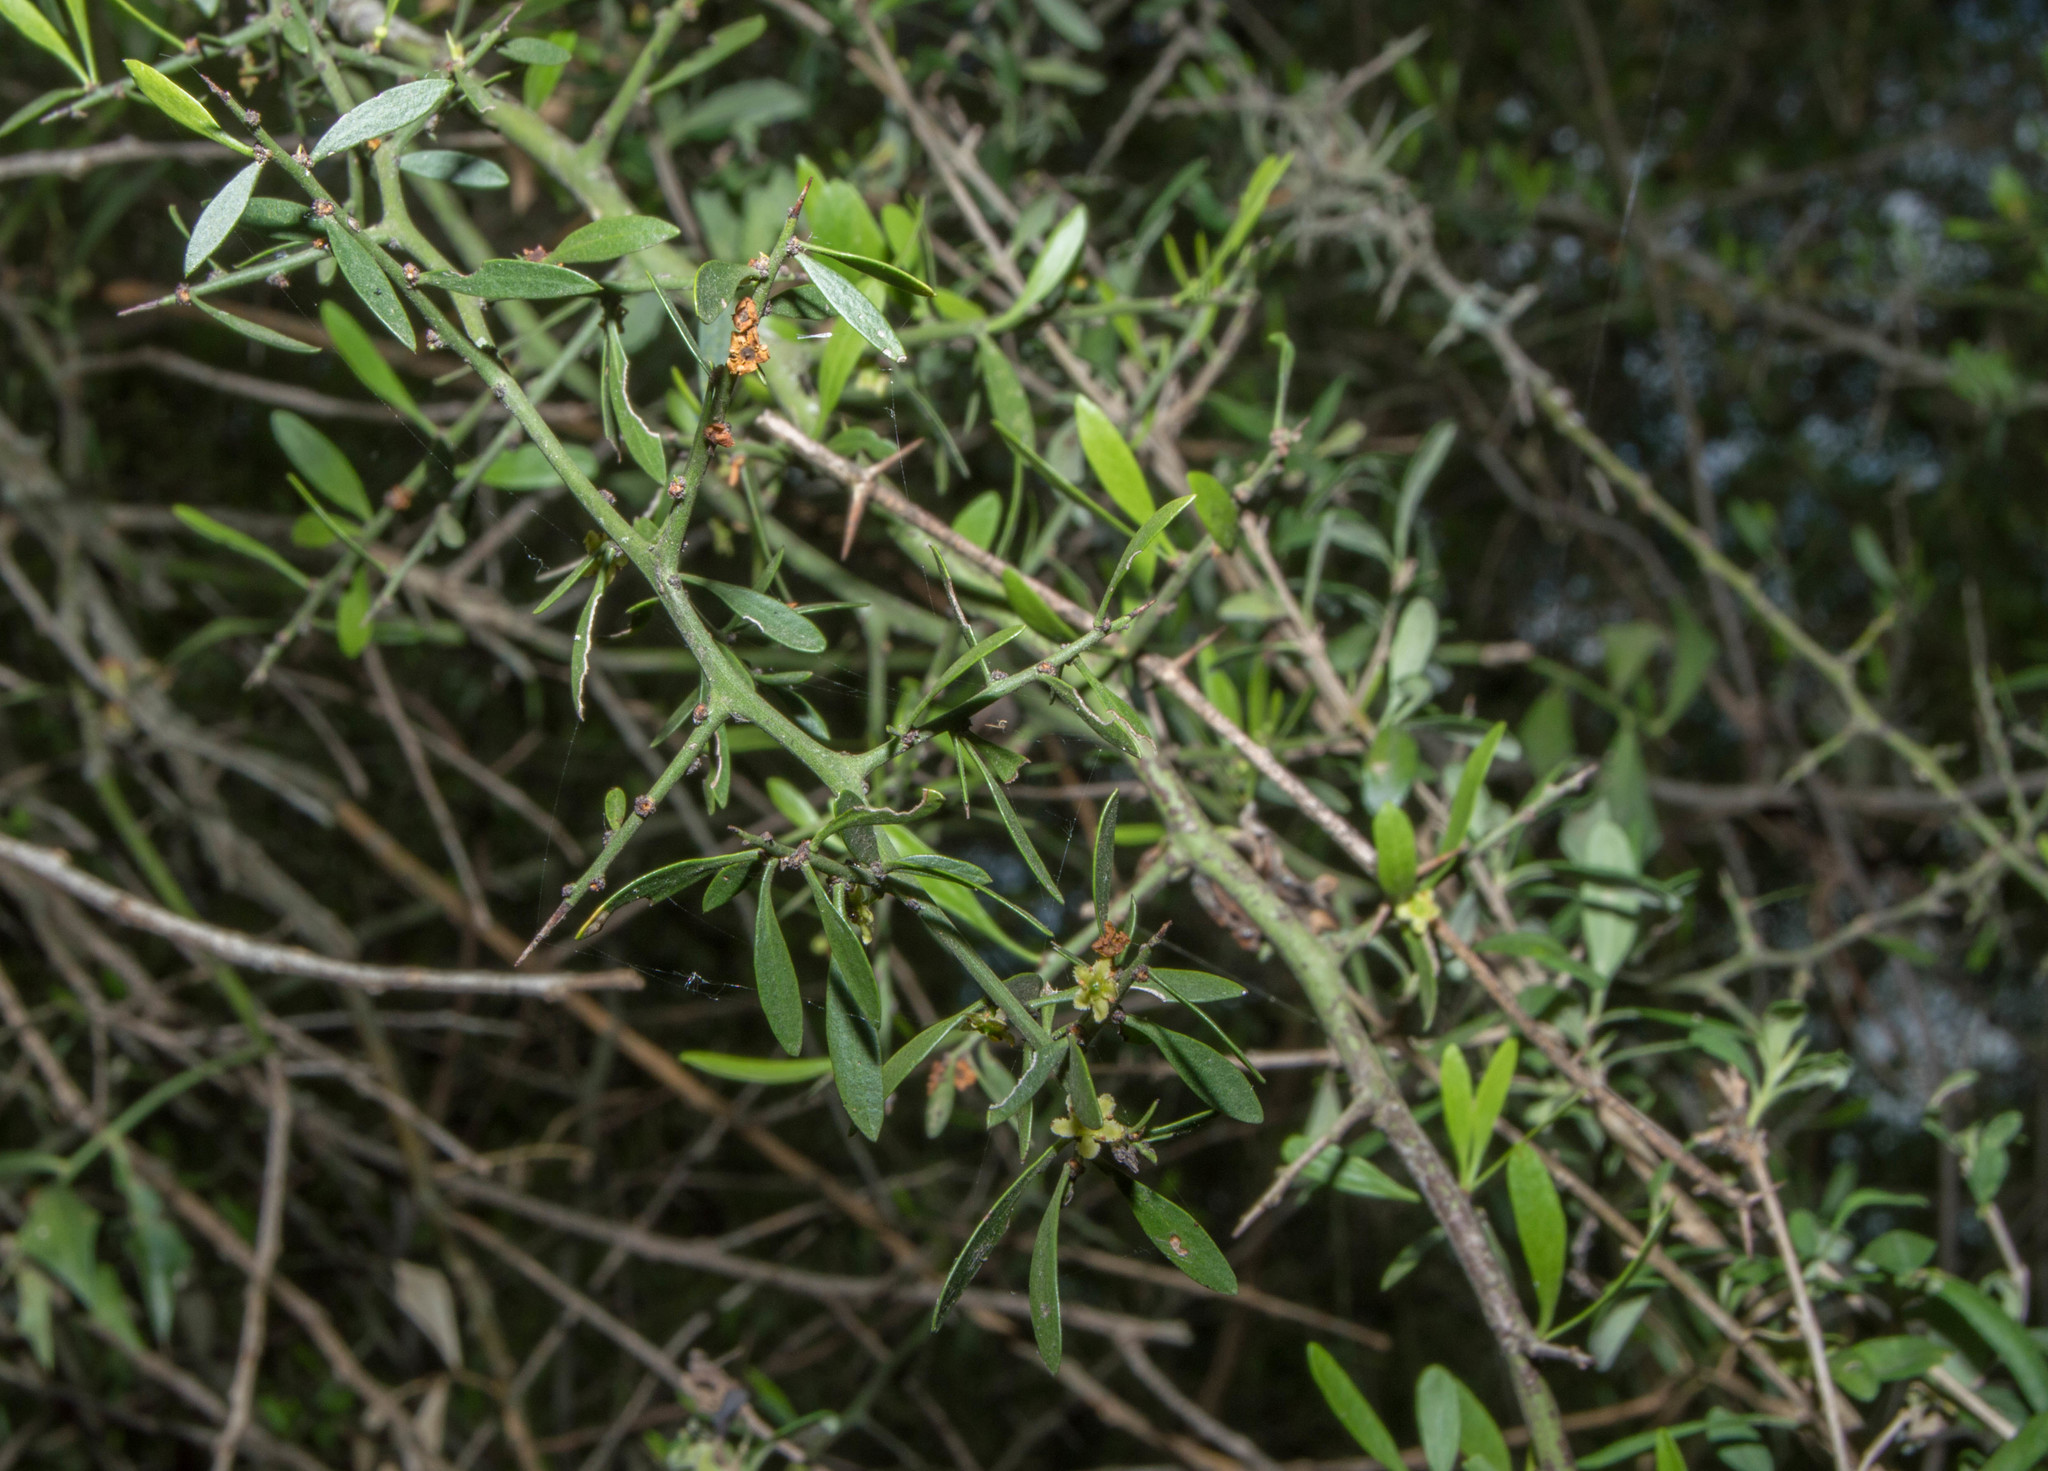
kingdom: Plantae
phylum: Tracheophyta
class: Magnoliopsida
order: Celastrales
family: Celastraceae
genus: Monteverdia
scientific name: Monteverdia spinosa
